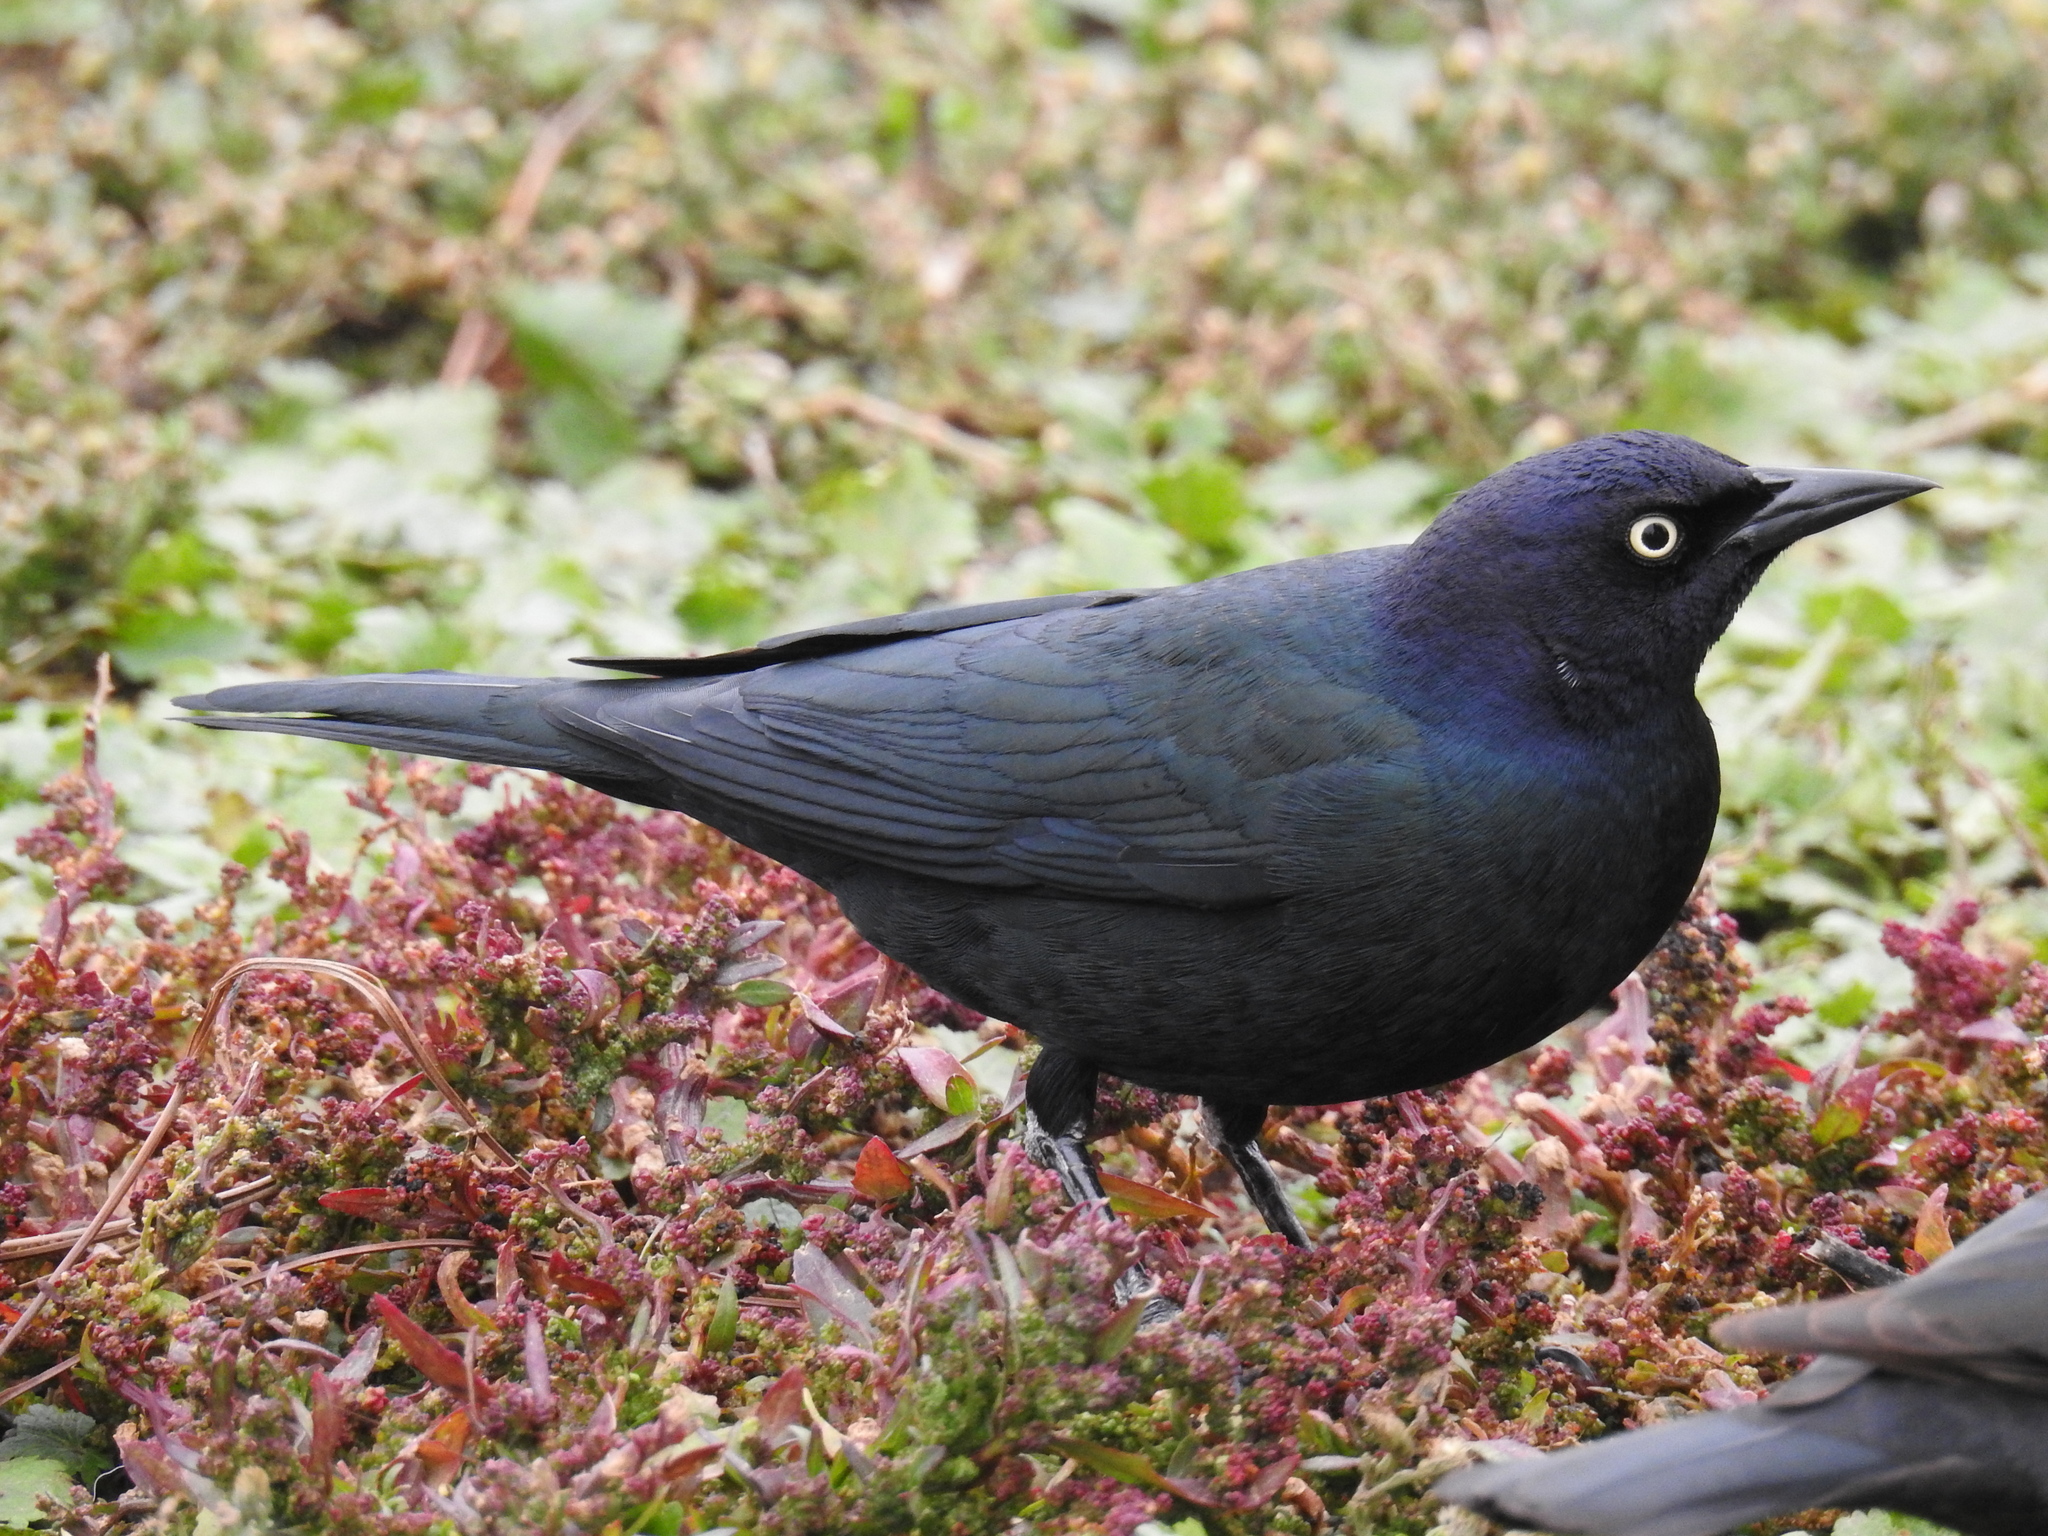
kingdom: Animalia
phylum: Chordata
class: Aves
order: Passeriformes
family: Icteridae
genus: Euphagus
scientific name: Euphagus cyanocephalus
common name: Brewer's blackbird
